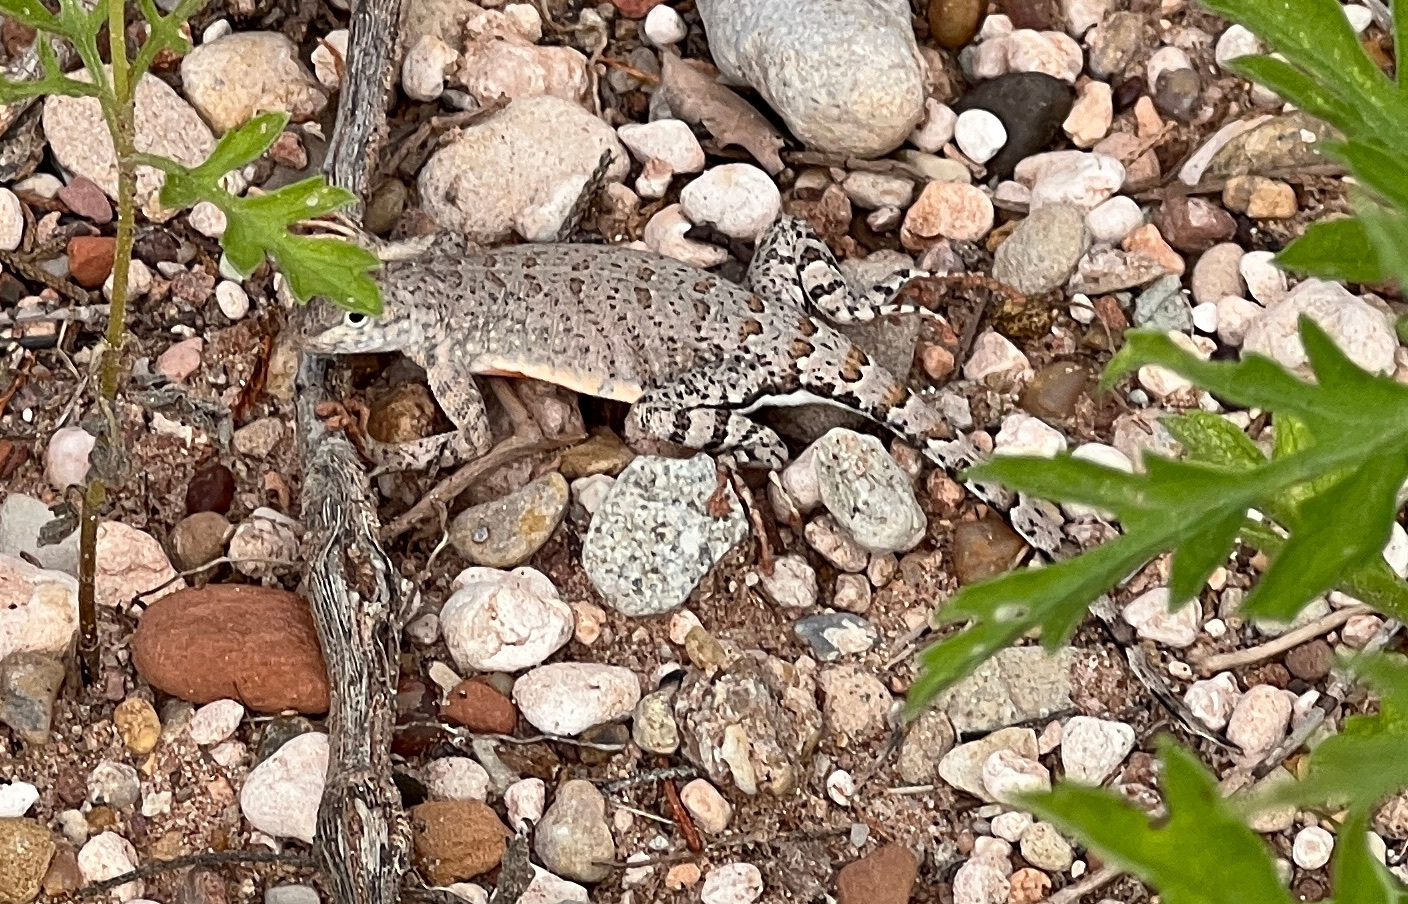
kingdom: Animalia
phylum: Chordata
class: Squamata
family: Phrynosomatidae
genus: Cophosaurus
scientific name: Cophosaurus texanus
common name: Greater earless lizard
